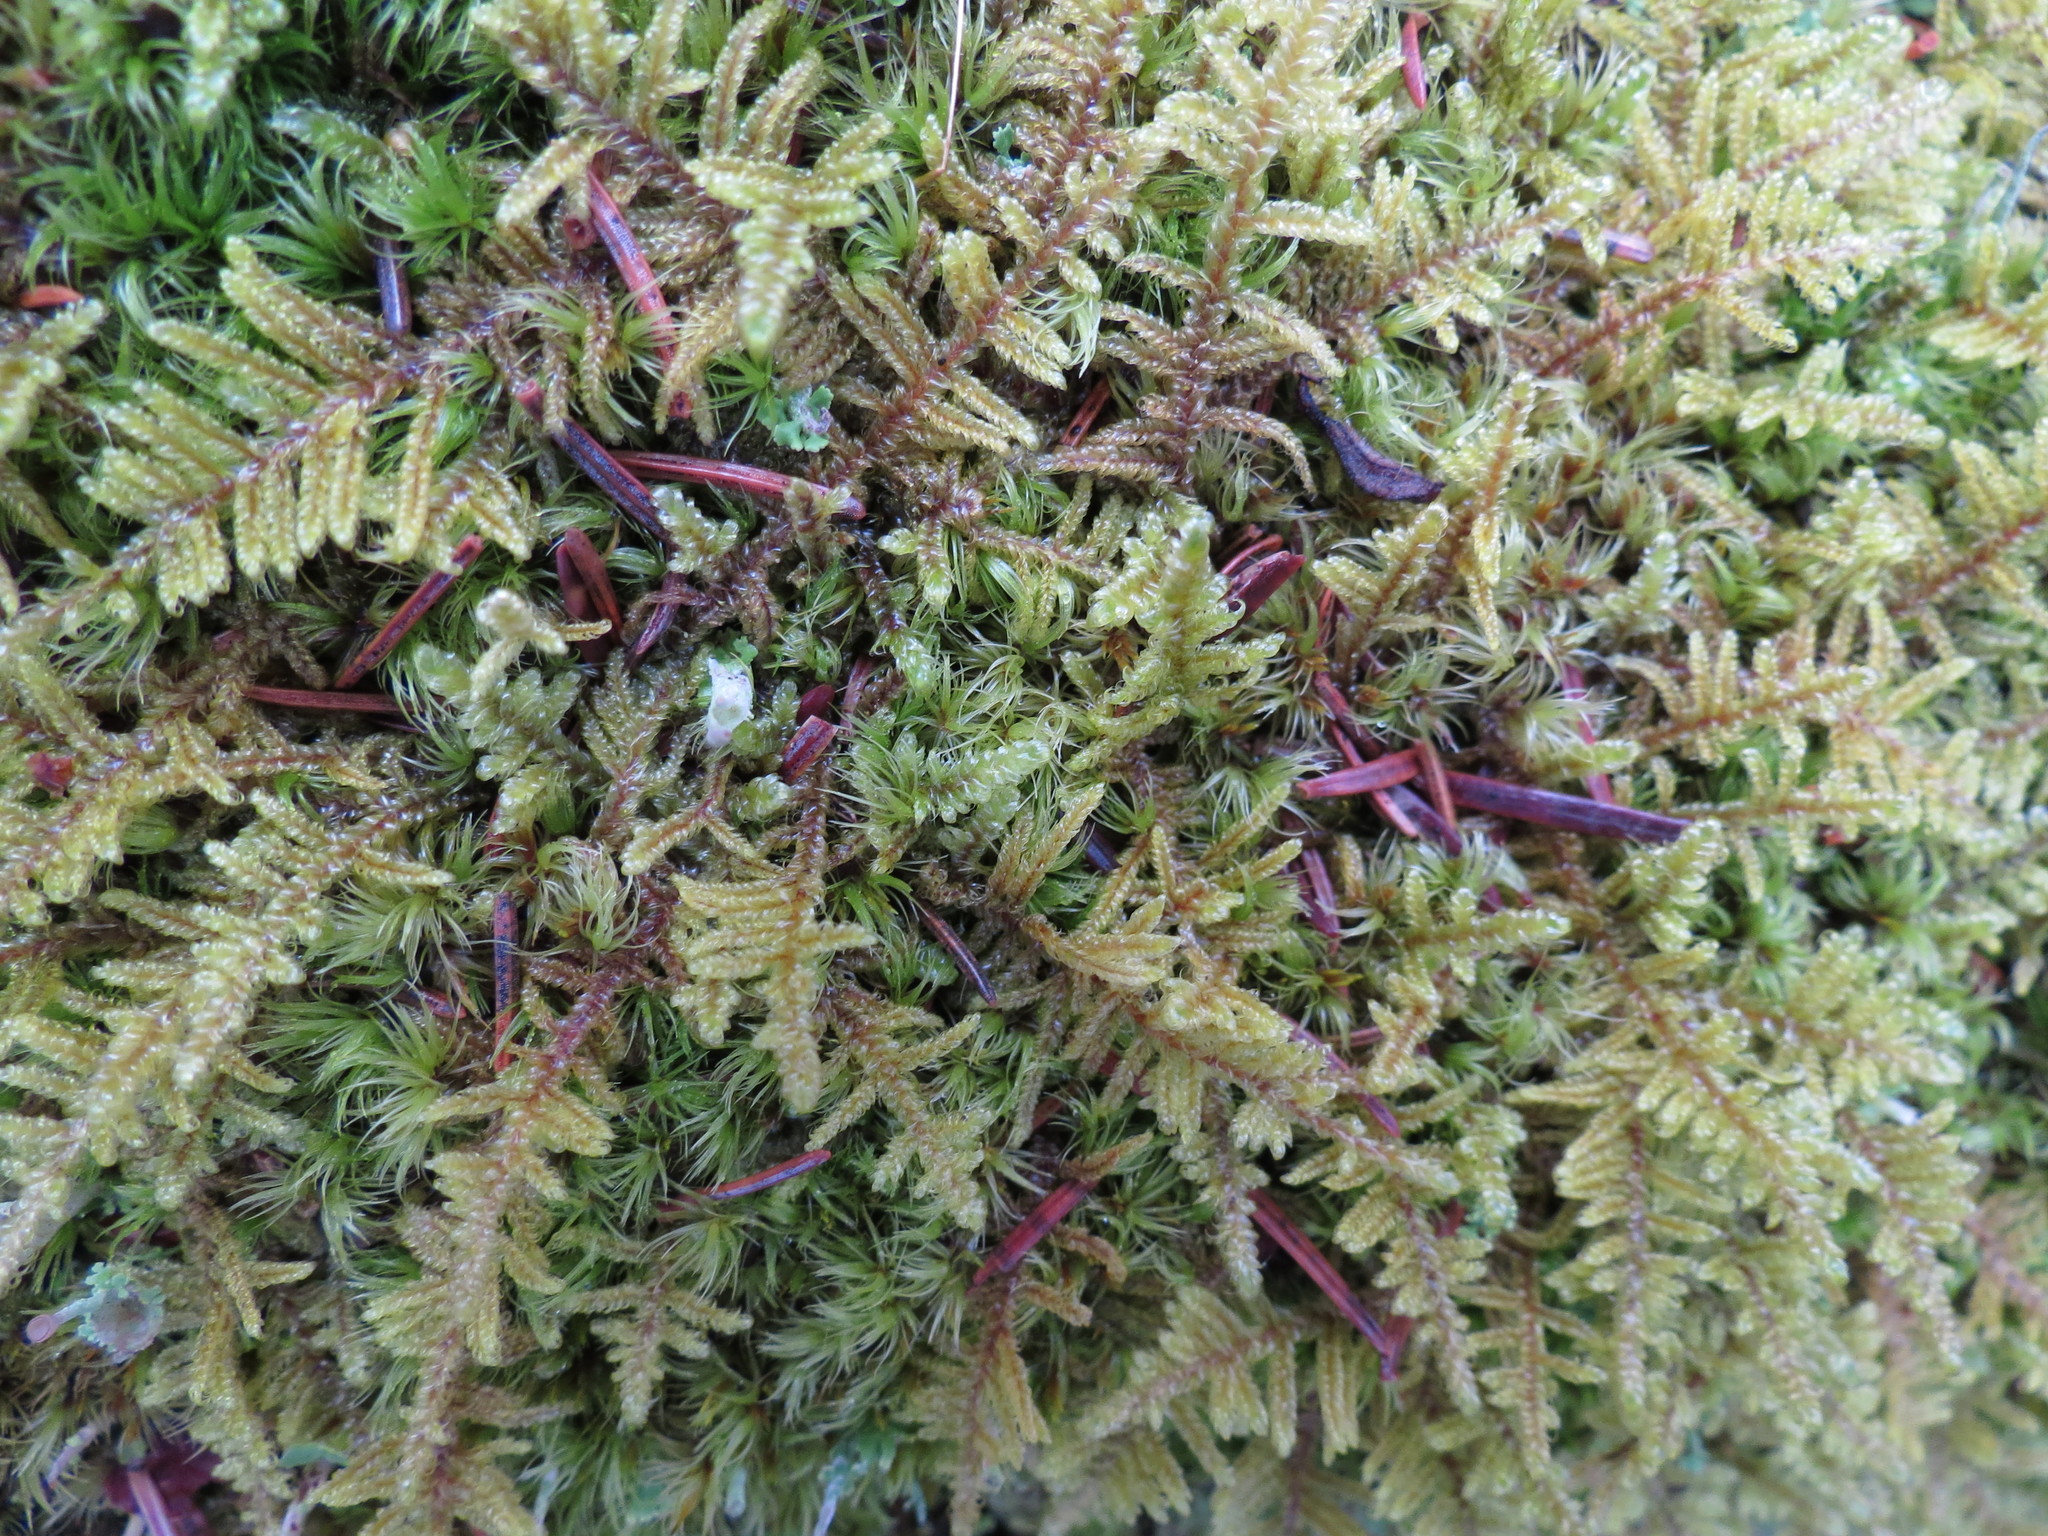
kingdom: Plantae
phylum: Bryophyta
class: Bryopsida
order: Hypnales
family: Callicladiaceae
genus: Callicladium
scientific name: Callicladium imponens
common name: Brocade moss
